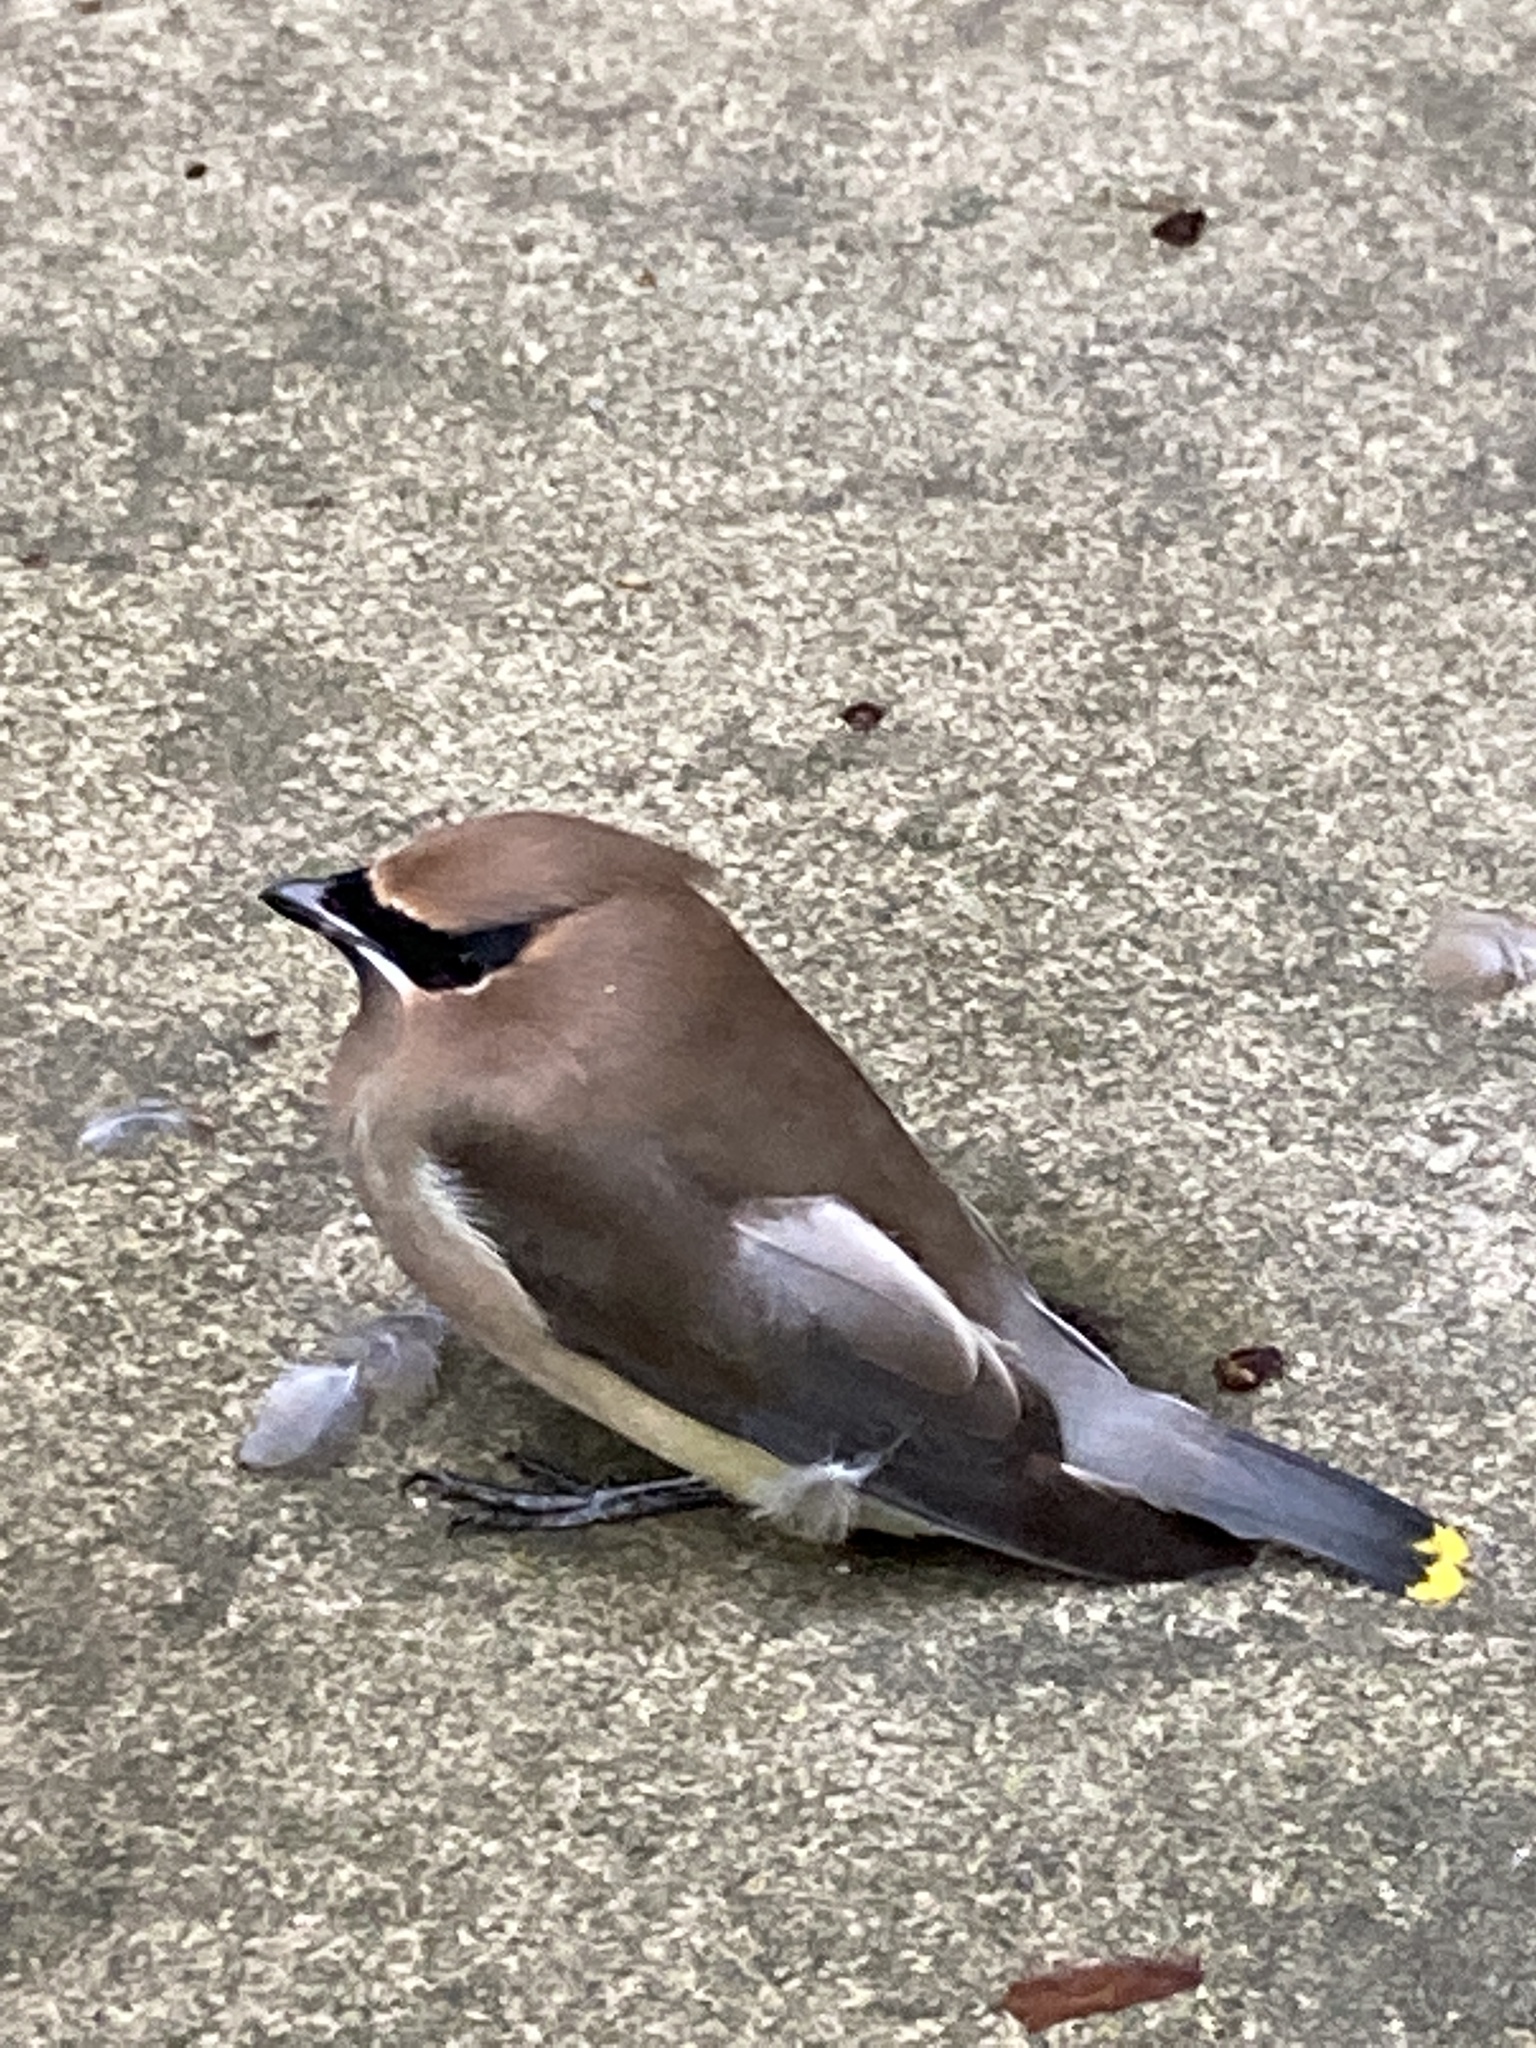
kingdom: Animalia
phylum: Chordata
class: Aves
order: Passeriformes
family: Bombycillidae
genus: Bombycilla
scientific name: Bombycilla cedrorum
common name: Cedar waxwing
